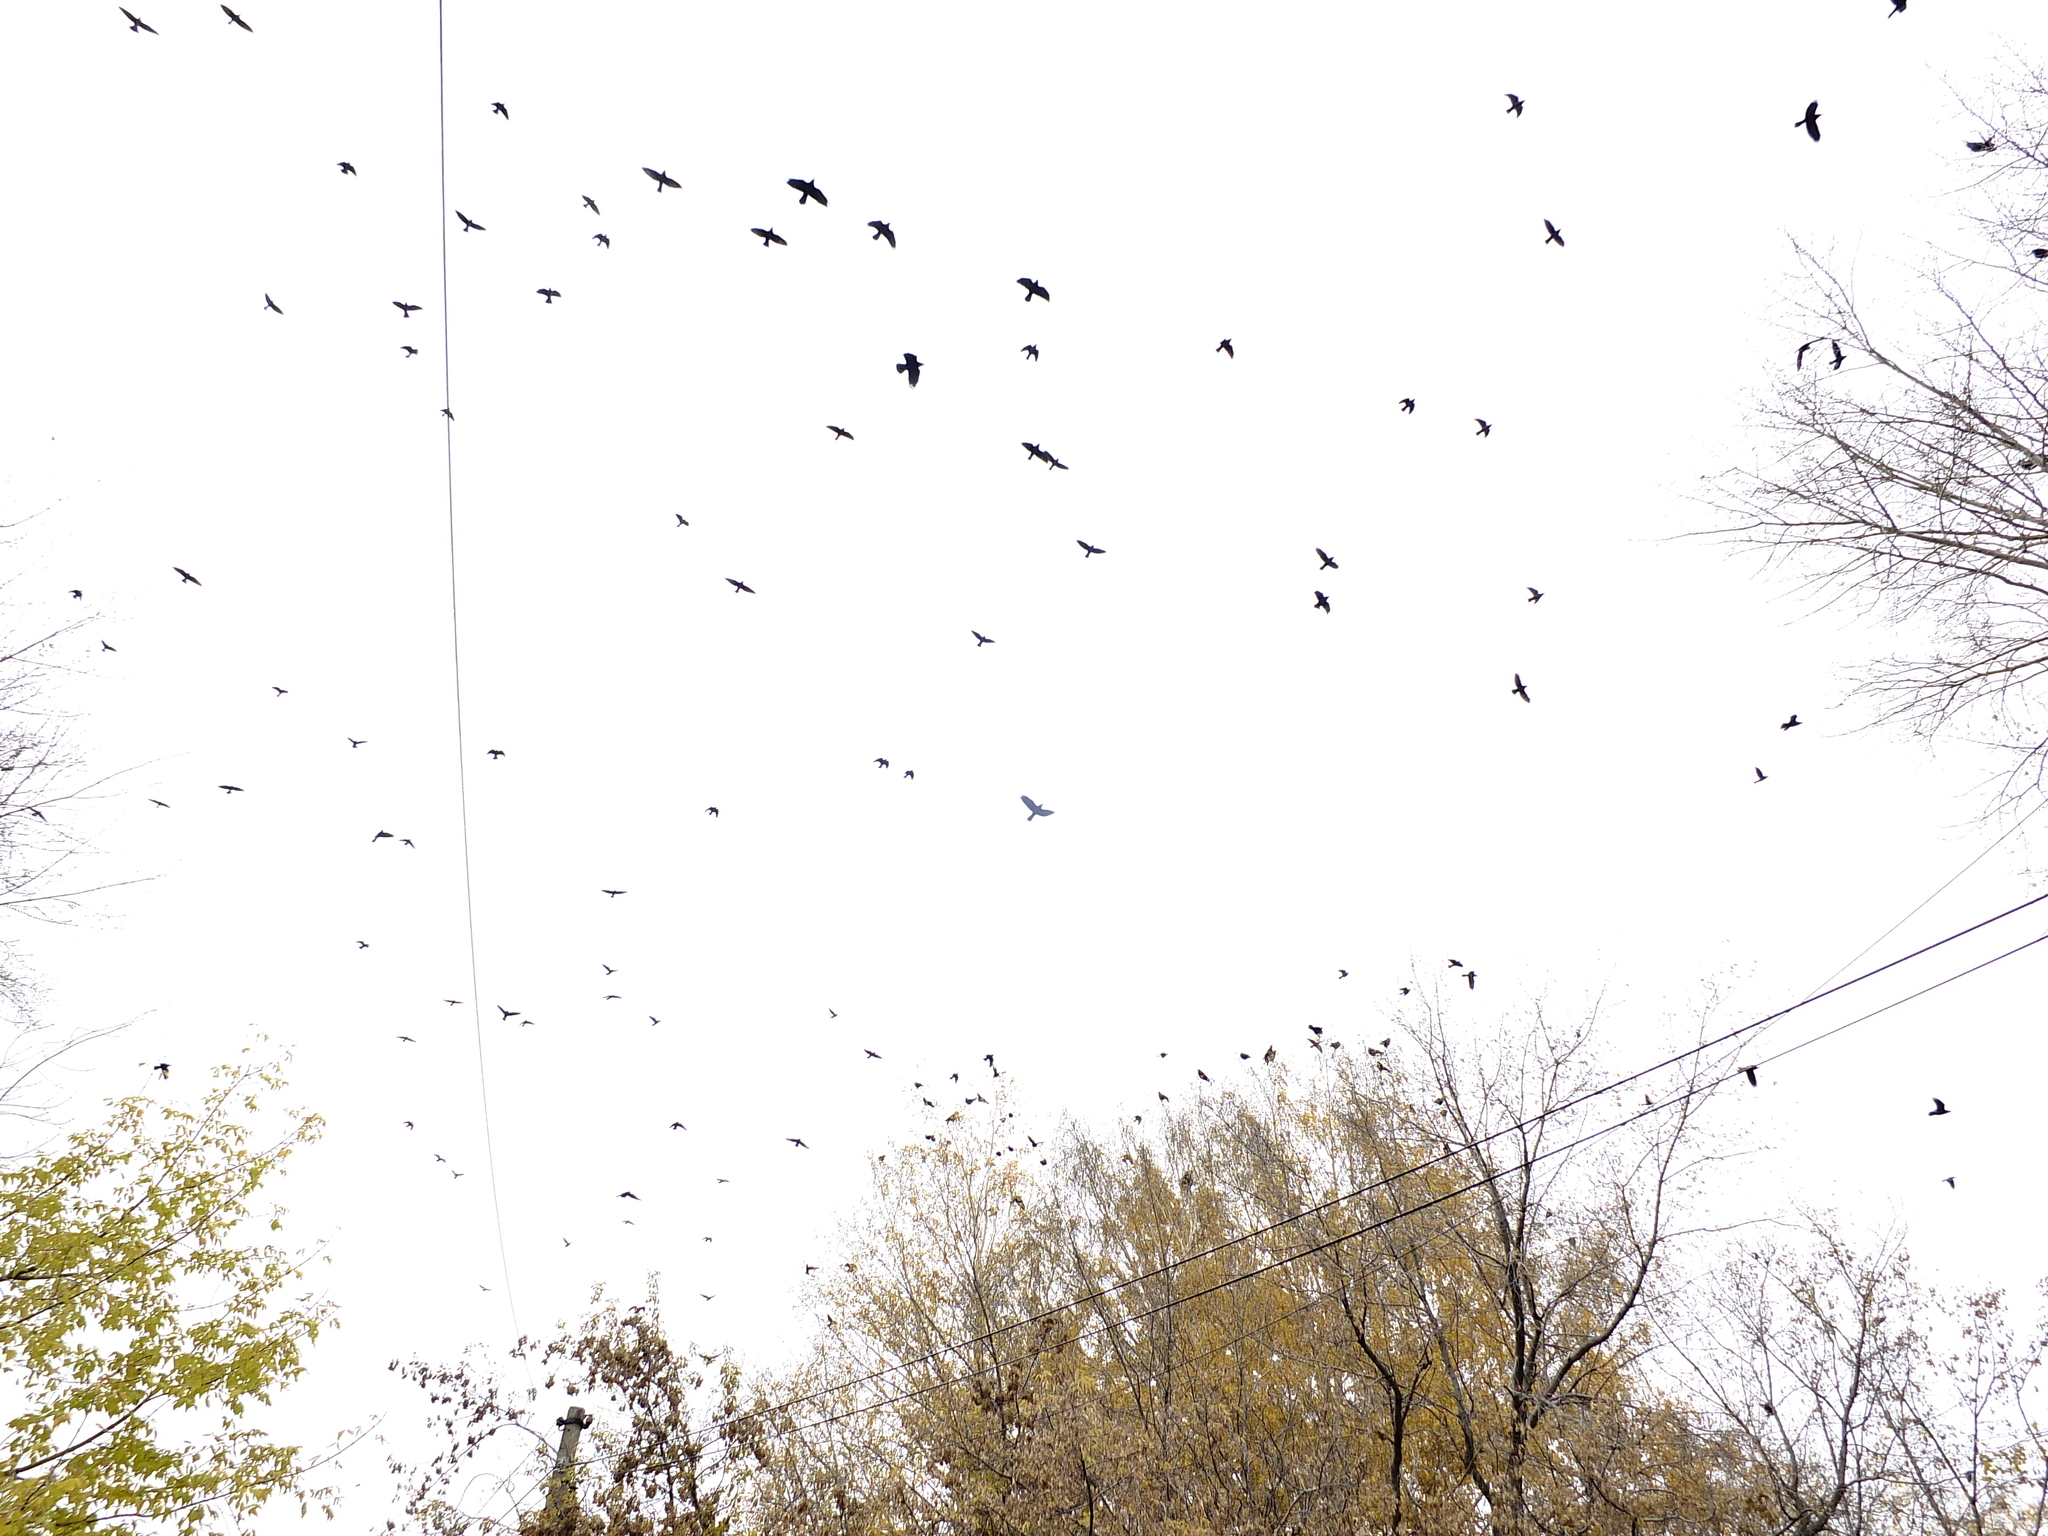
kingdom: Animalia
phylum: Chordata
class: Aves
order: Passeriformes
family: Corvidae
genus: Corvus
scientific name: Corvus frugilegus
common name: Rook
